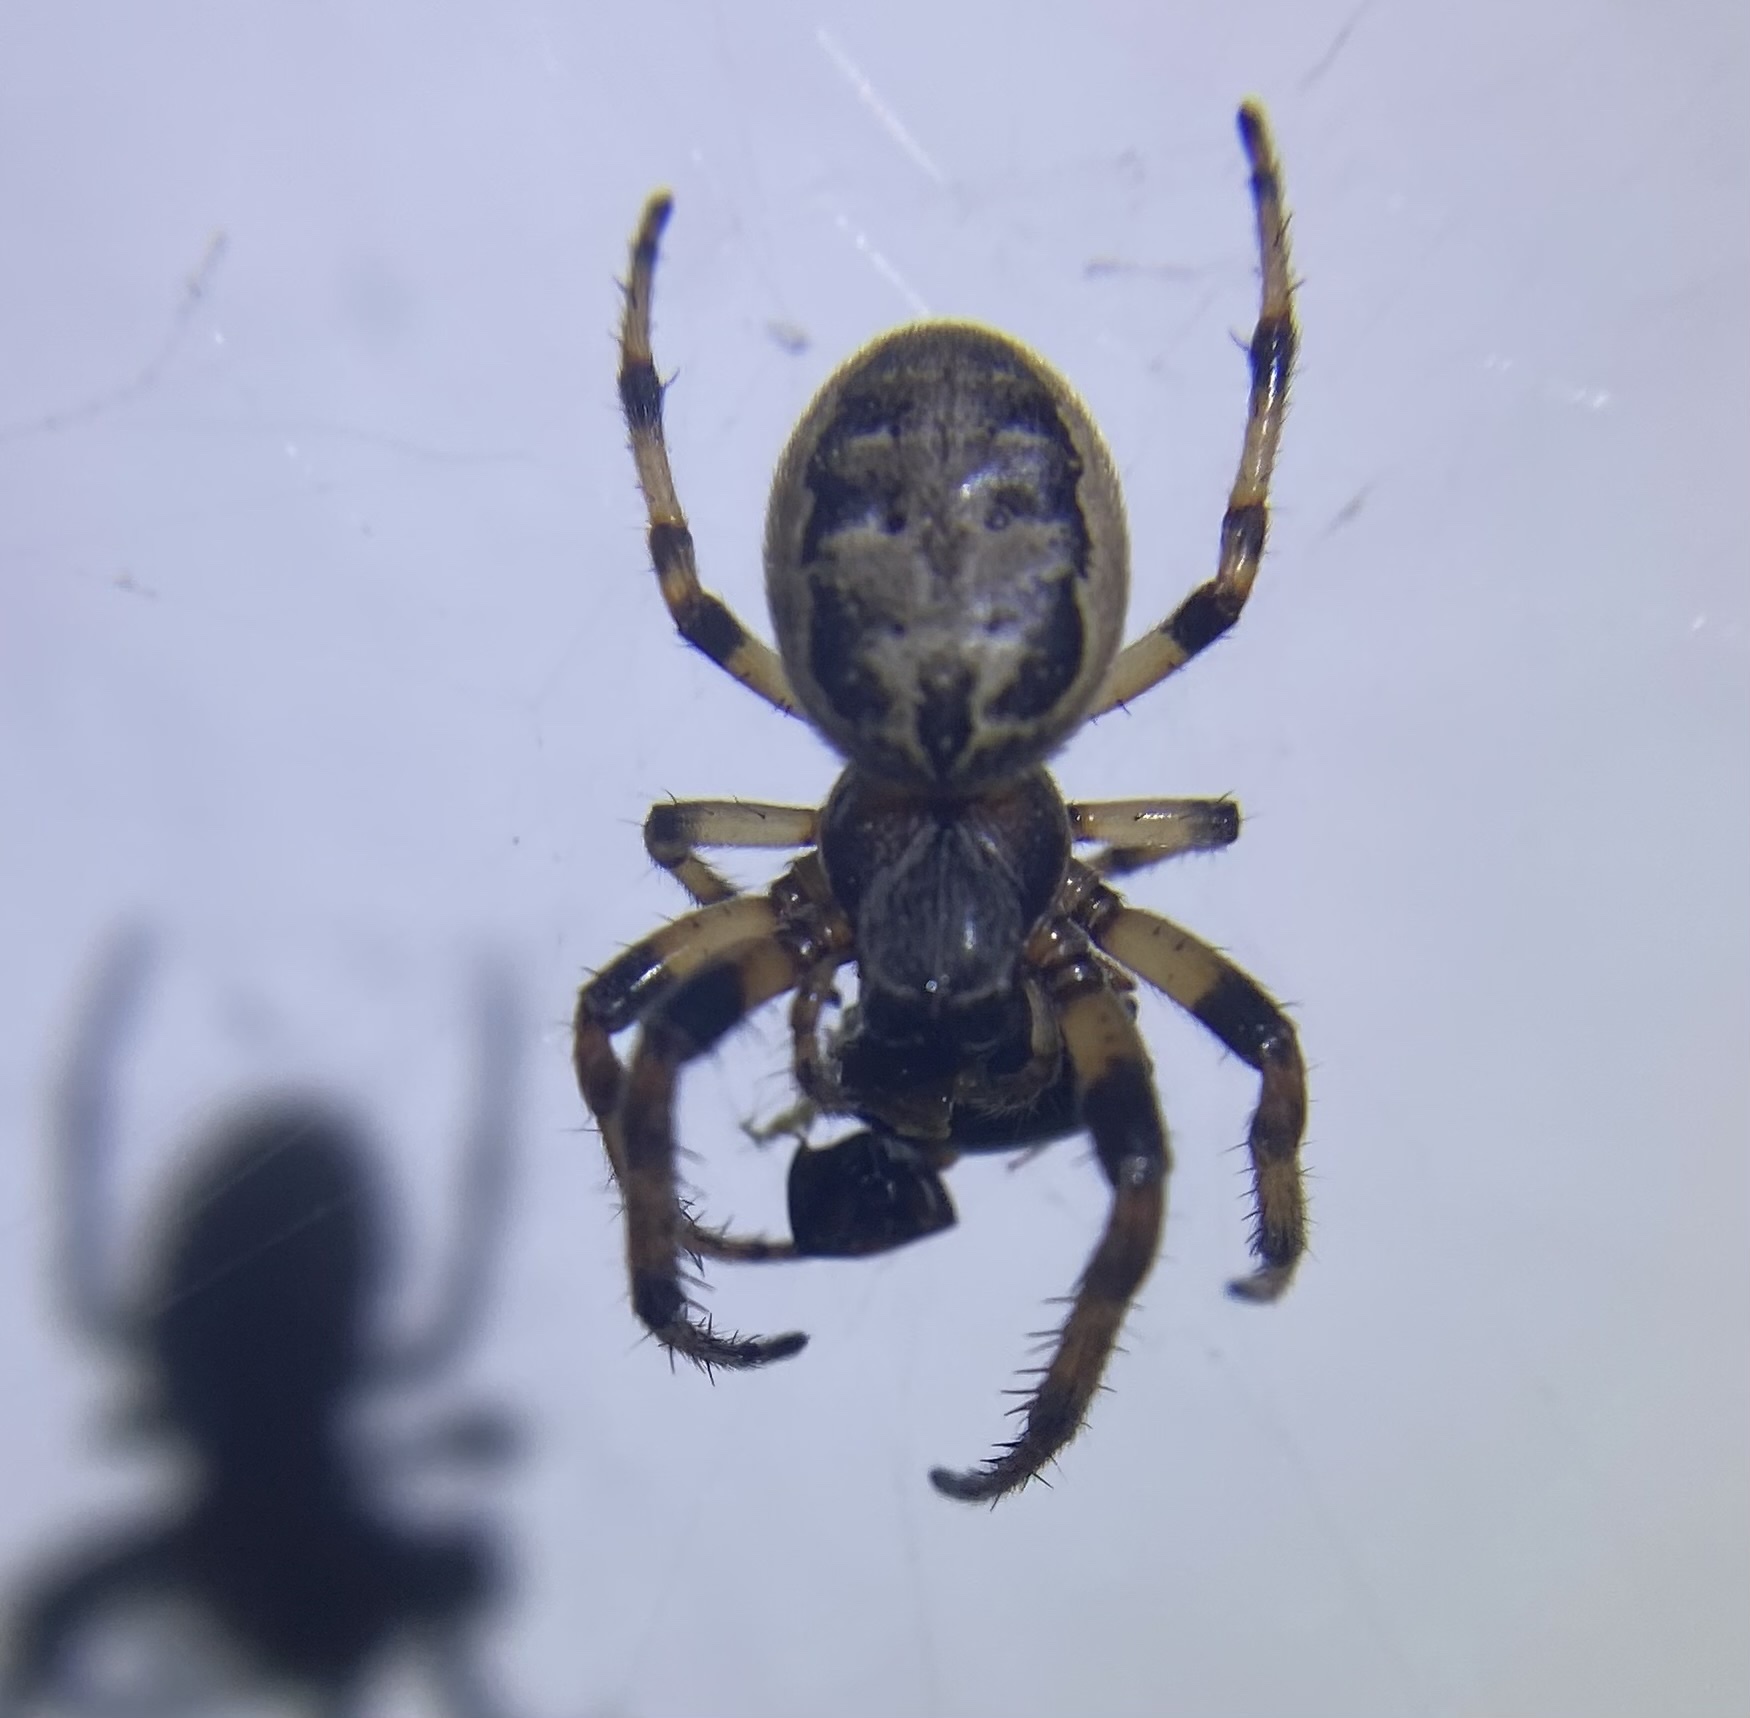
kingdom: Animalia
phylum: Arthropoda
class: Arachnida
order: Araneae
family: Araneidae
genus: Larinioides
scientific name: Larinioides cornutus
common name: Furrow orbweaver
